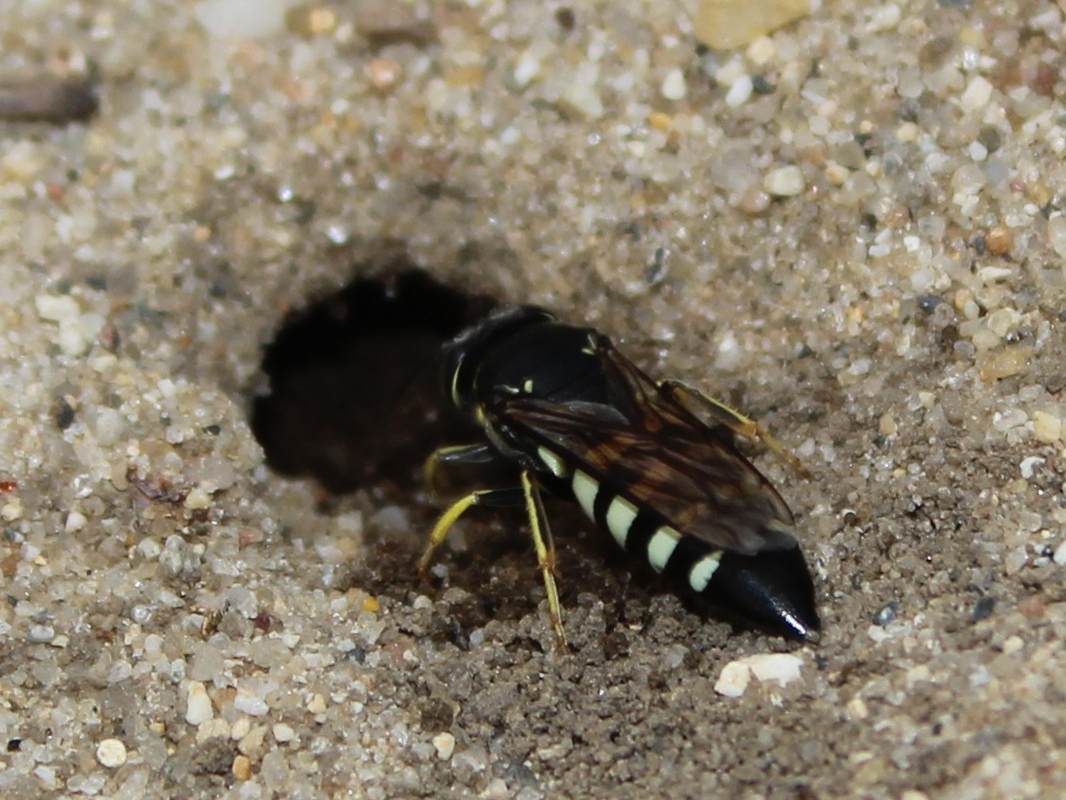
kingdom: Animalia
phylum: Arthropoda
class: Insecta
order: Hymenoptera
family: Crabronidae
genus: Bicyrtes
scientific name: Bicyrtes quadrifasciatus
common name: Four-banded stink bug hunter wasp
